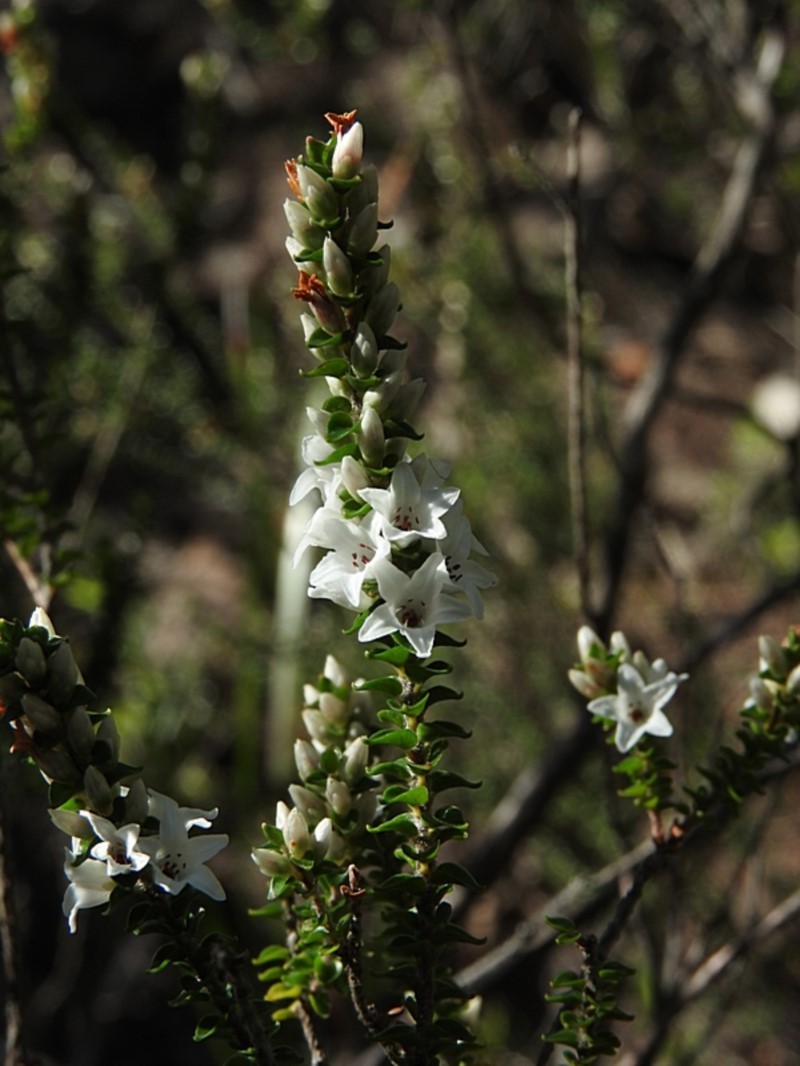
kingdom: Plantae
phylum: Tracheophyta
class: Magnoliopsida
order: Ericales
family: Ericaceae
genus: Epacris
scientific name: Epacris microphylla
